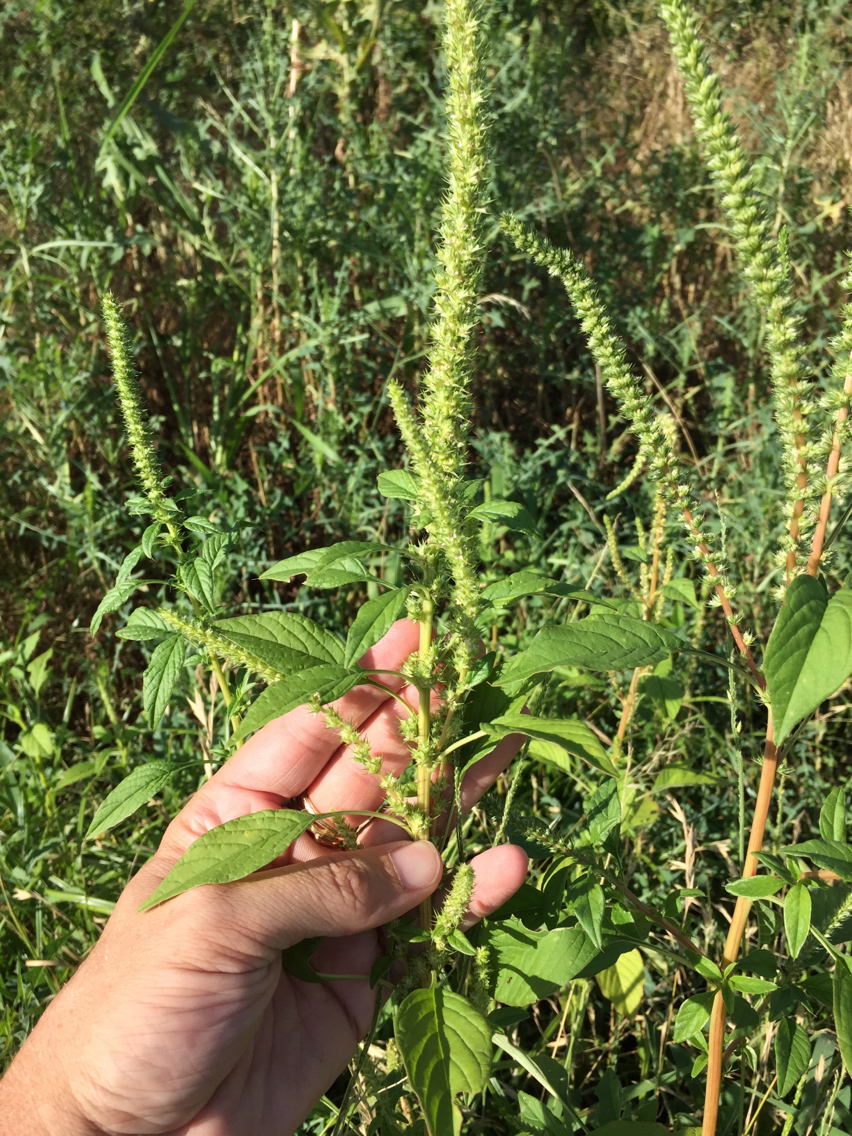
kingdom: Plantae
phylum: Tracheophyta
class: Magnoliopsida
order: Caryophyllales
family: Amaranthaceae
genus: Amaranthus
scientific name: Amaranthus palmeri
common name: Dioecious amaranth
